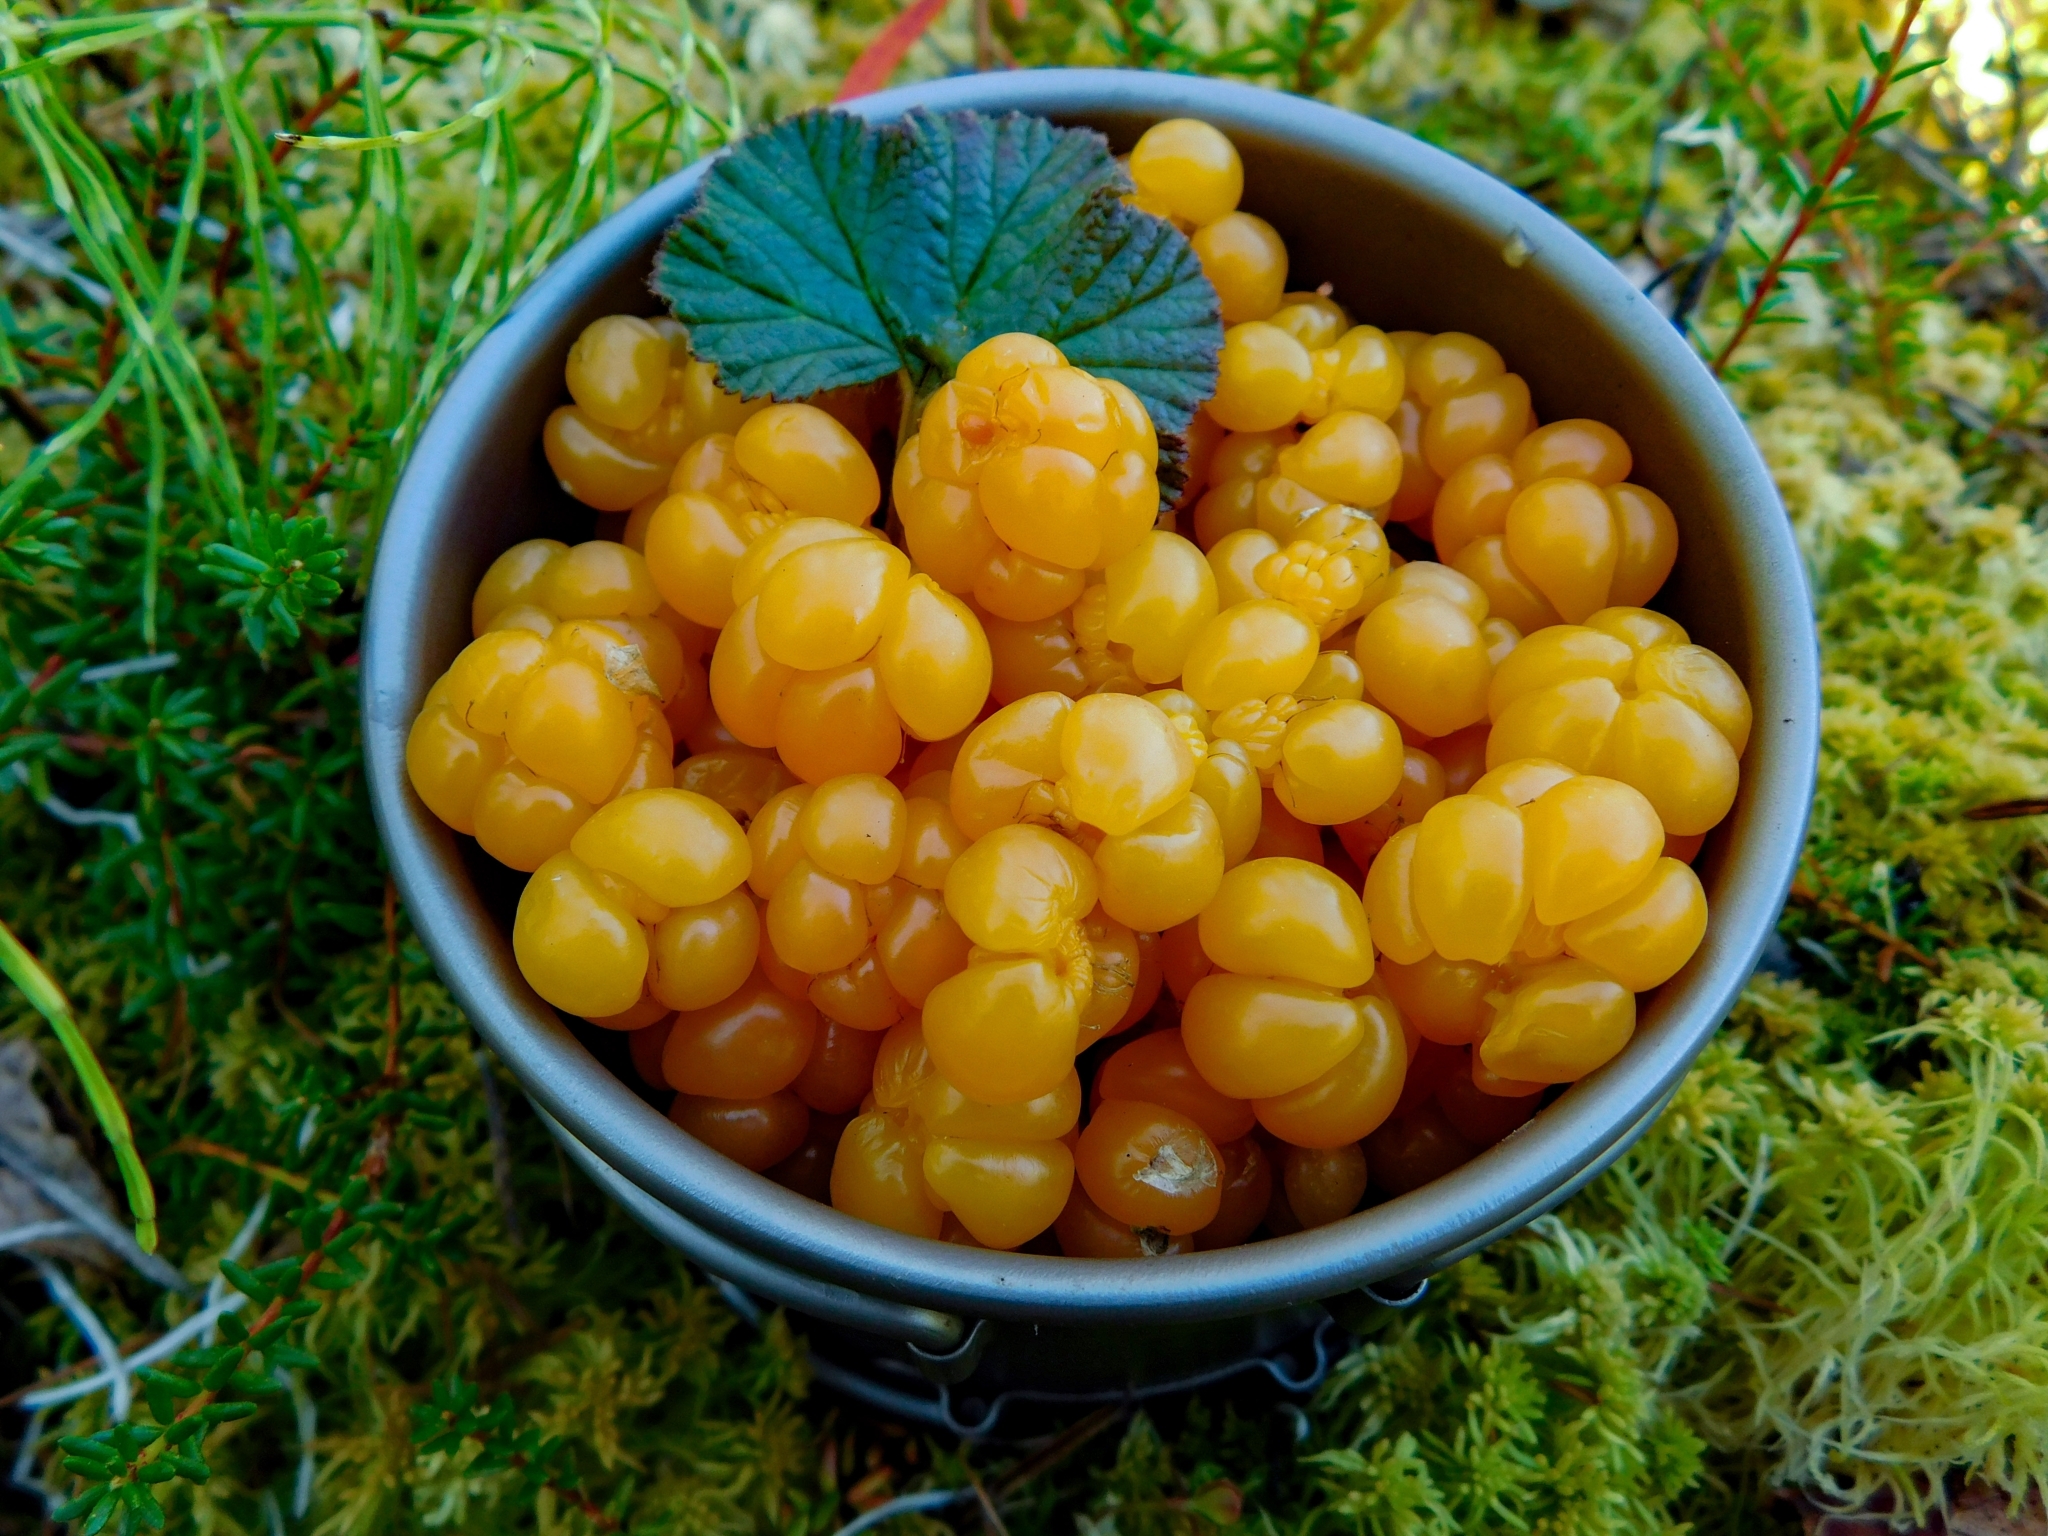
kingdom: Plantae
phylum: Tracheophyta
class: Magnoliopsida
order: Rosales
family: Rosaceae
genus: Rubus
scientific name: Rubus chamaemorus
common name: Cloudberry
